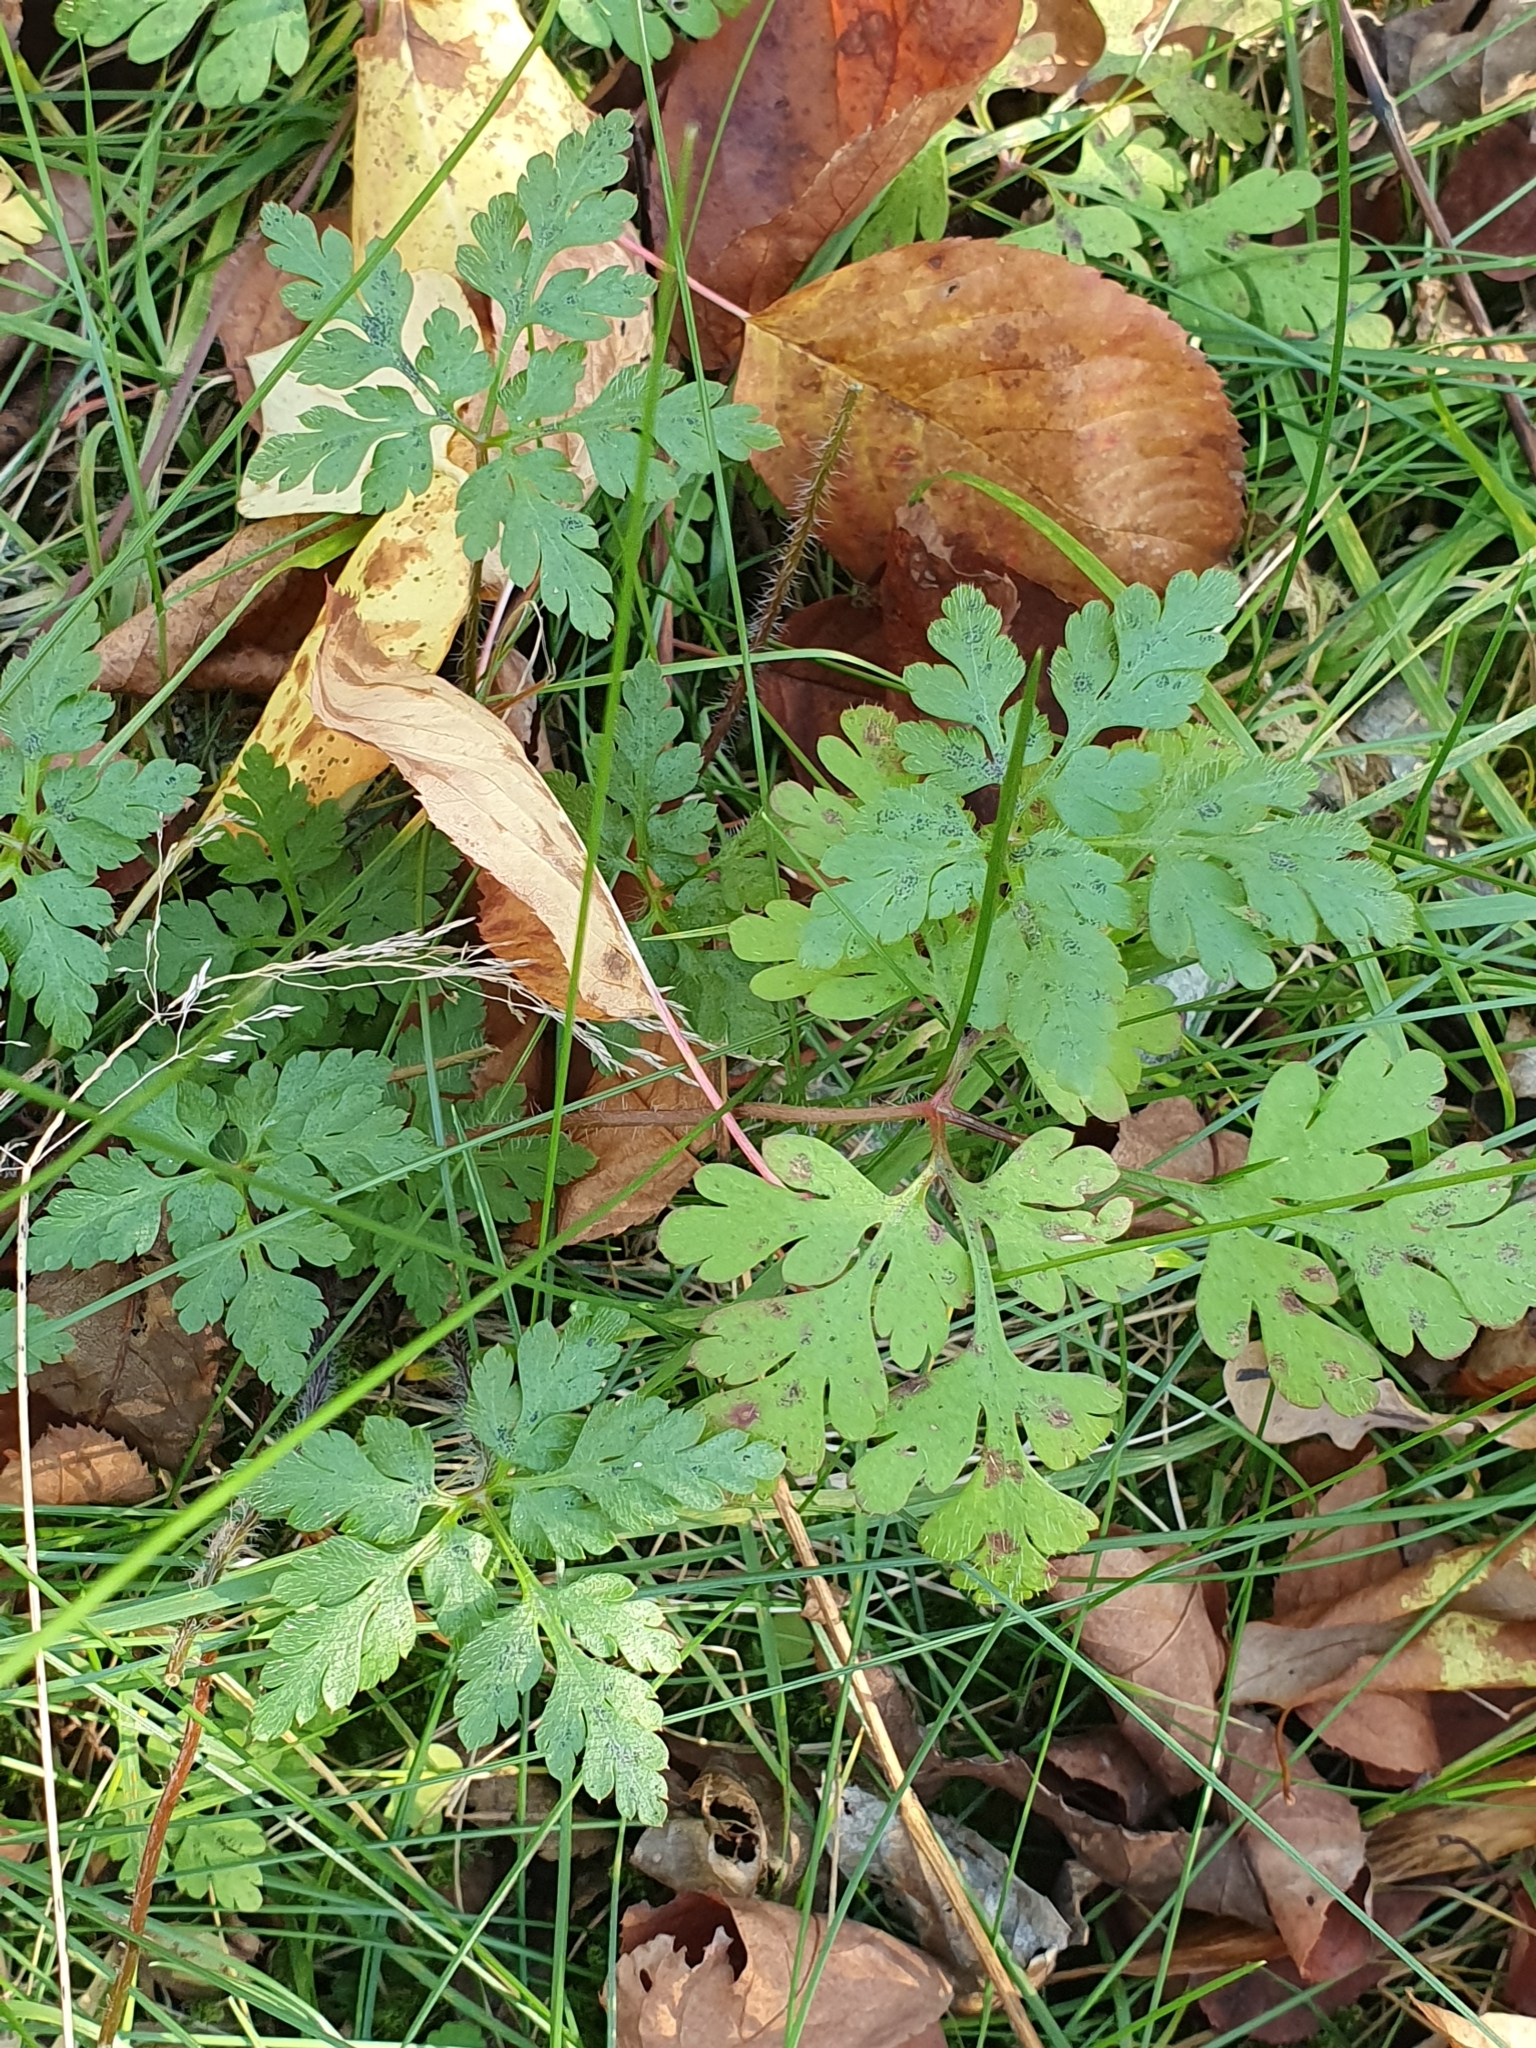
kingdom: Plantae
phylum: Tracheophyta
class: Magnoliopsida
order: Geraniales
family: Geraniaceae
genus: Geranium
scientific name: Geranium robertianum
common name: Herb-robert
